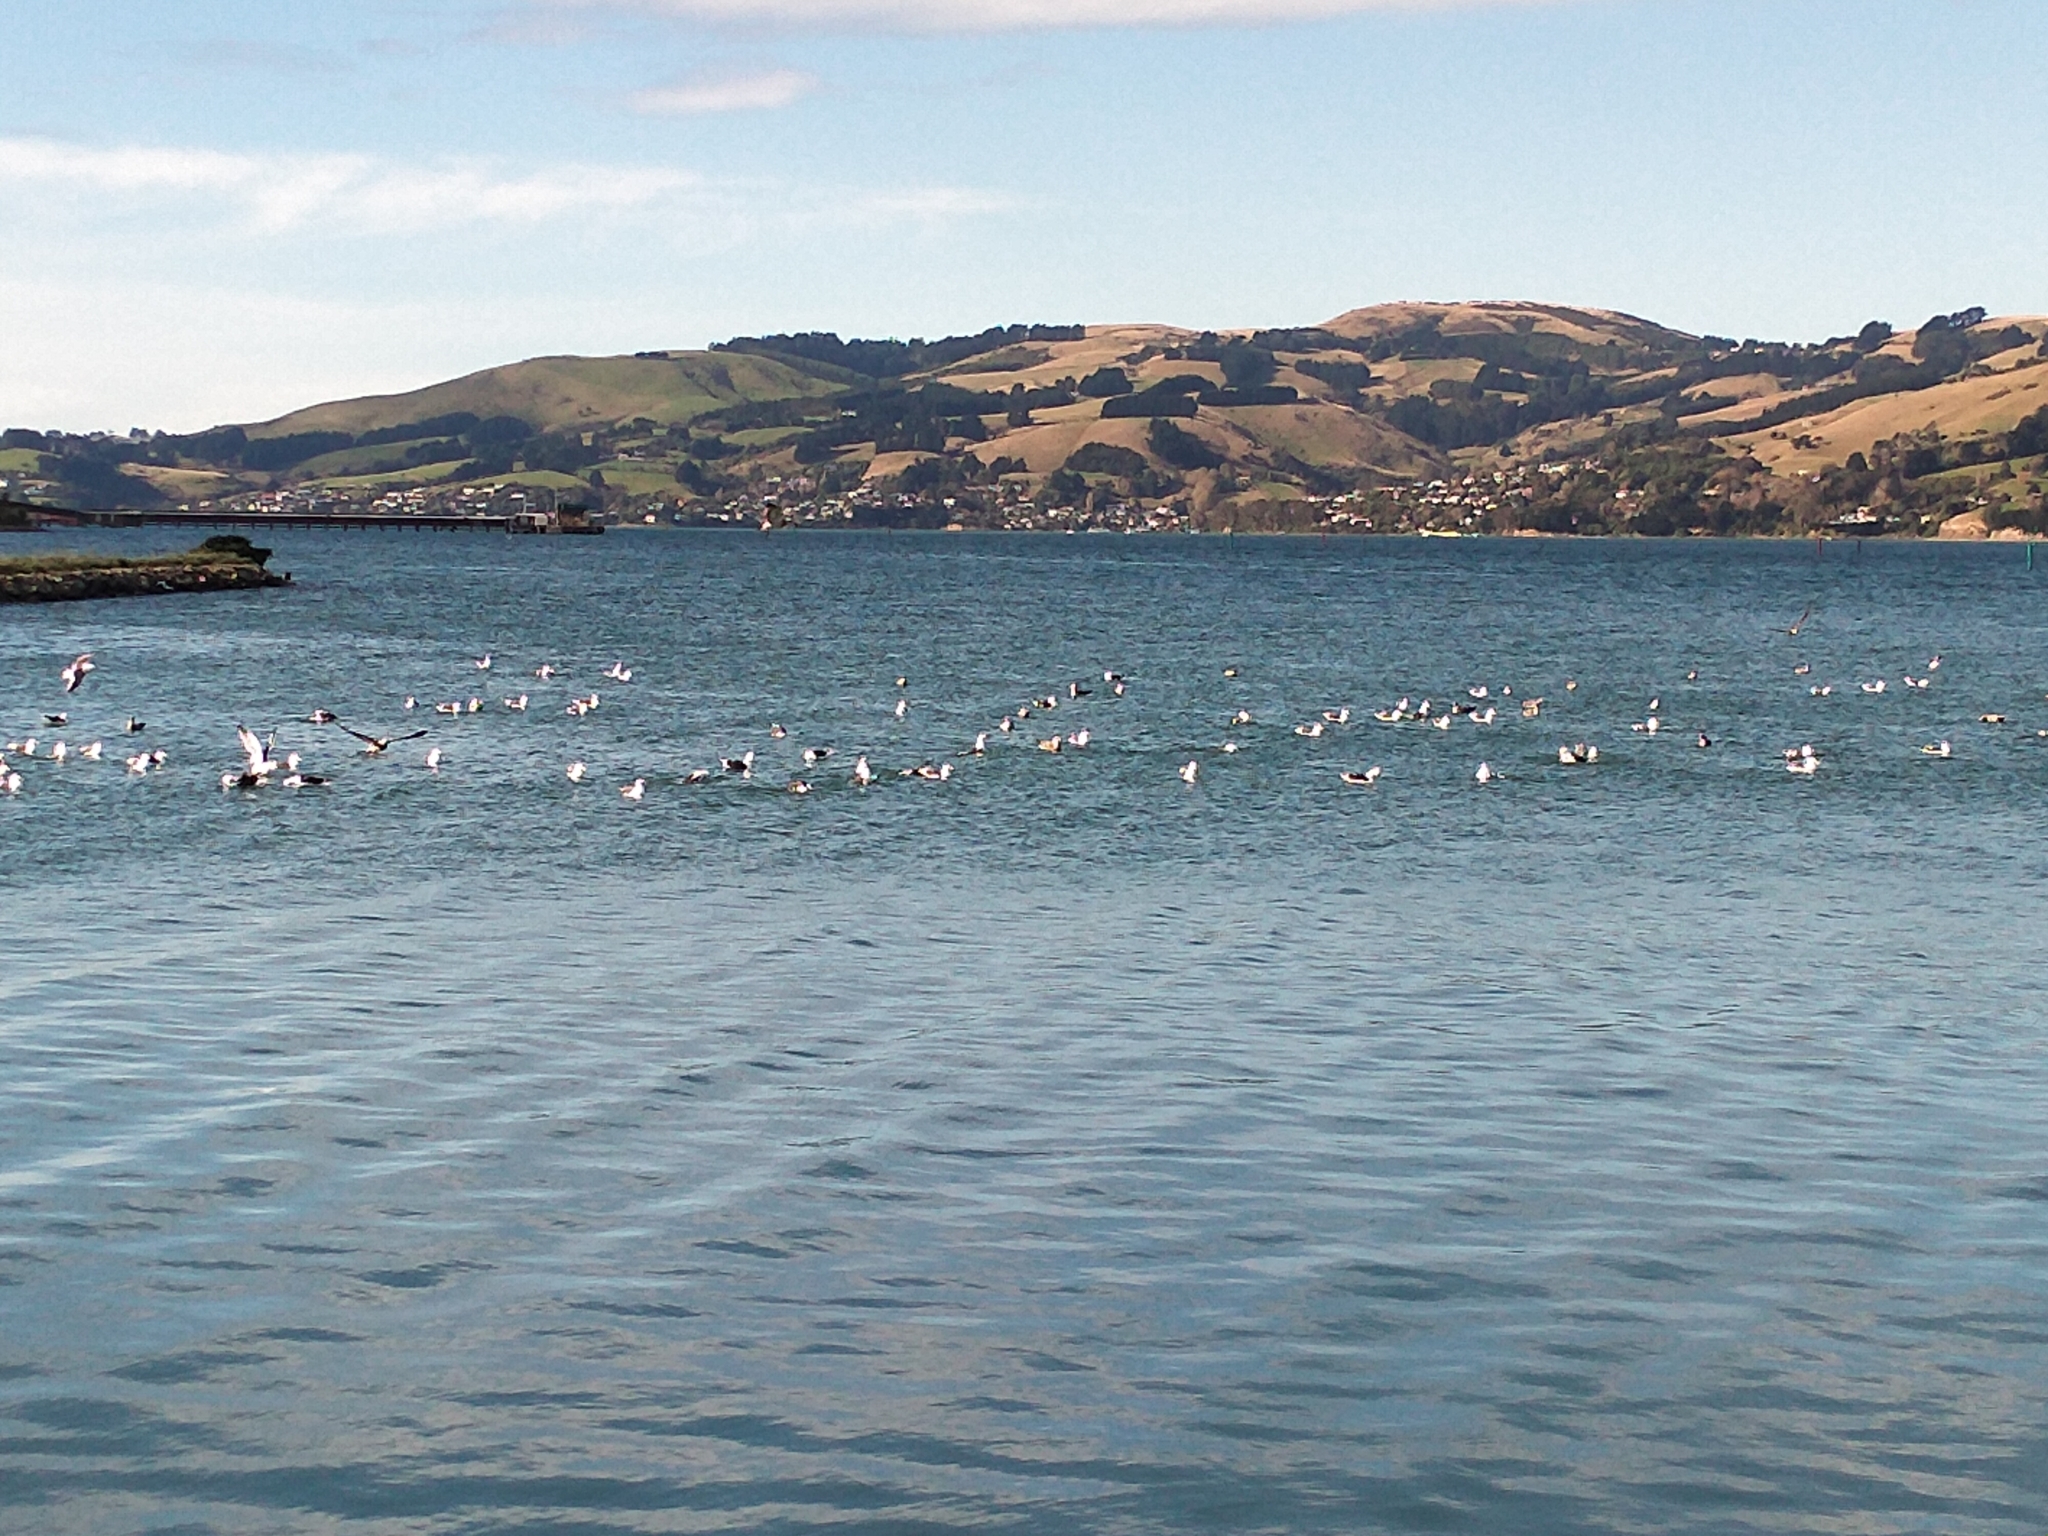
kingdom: Animalia
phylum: Chordata
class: Aves
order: Charadriiformes
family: Laridae
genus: Larus
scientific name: Larus dominicanus
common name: Kelp gull
